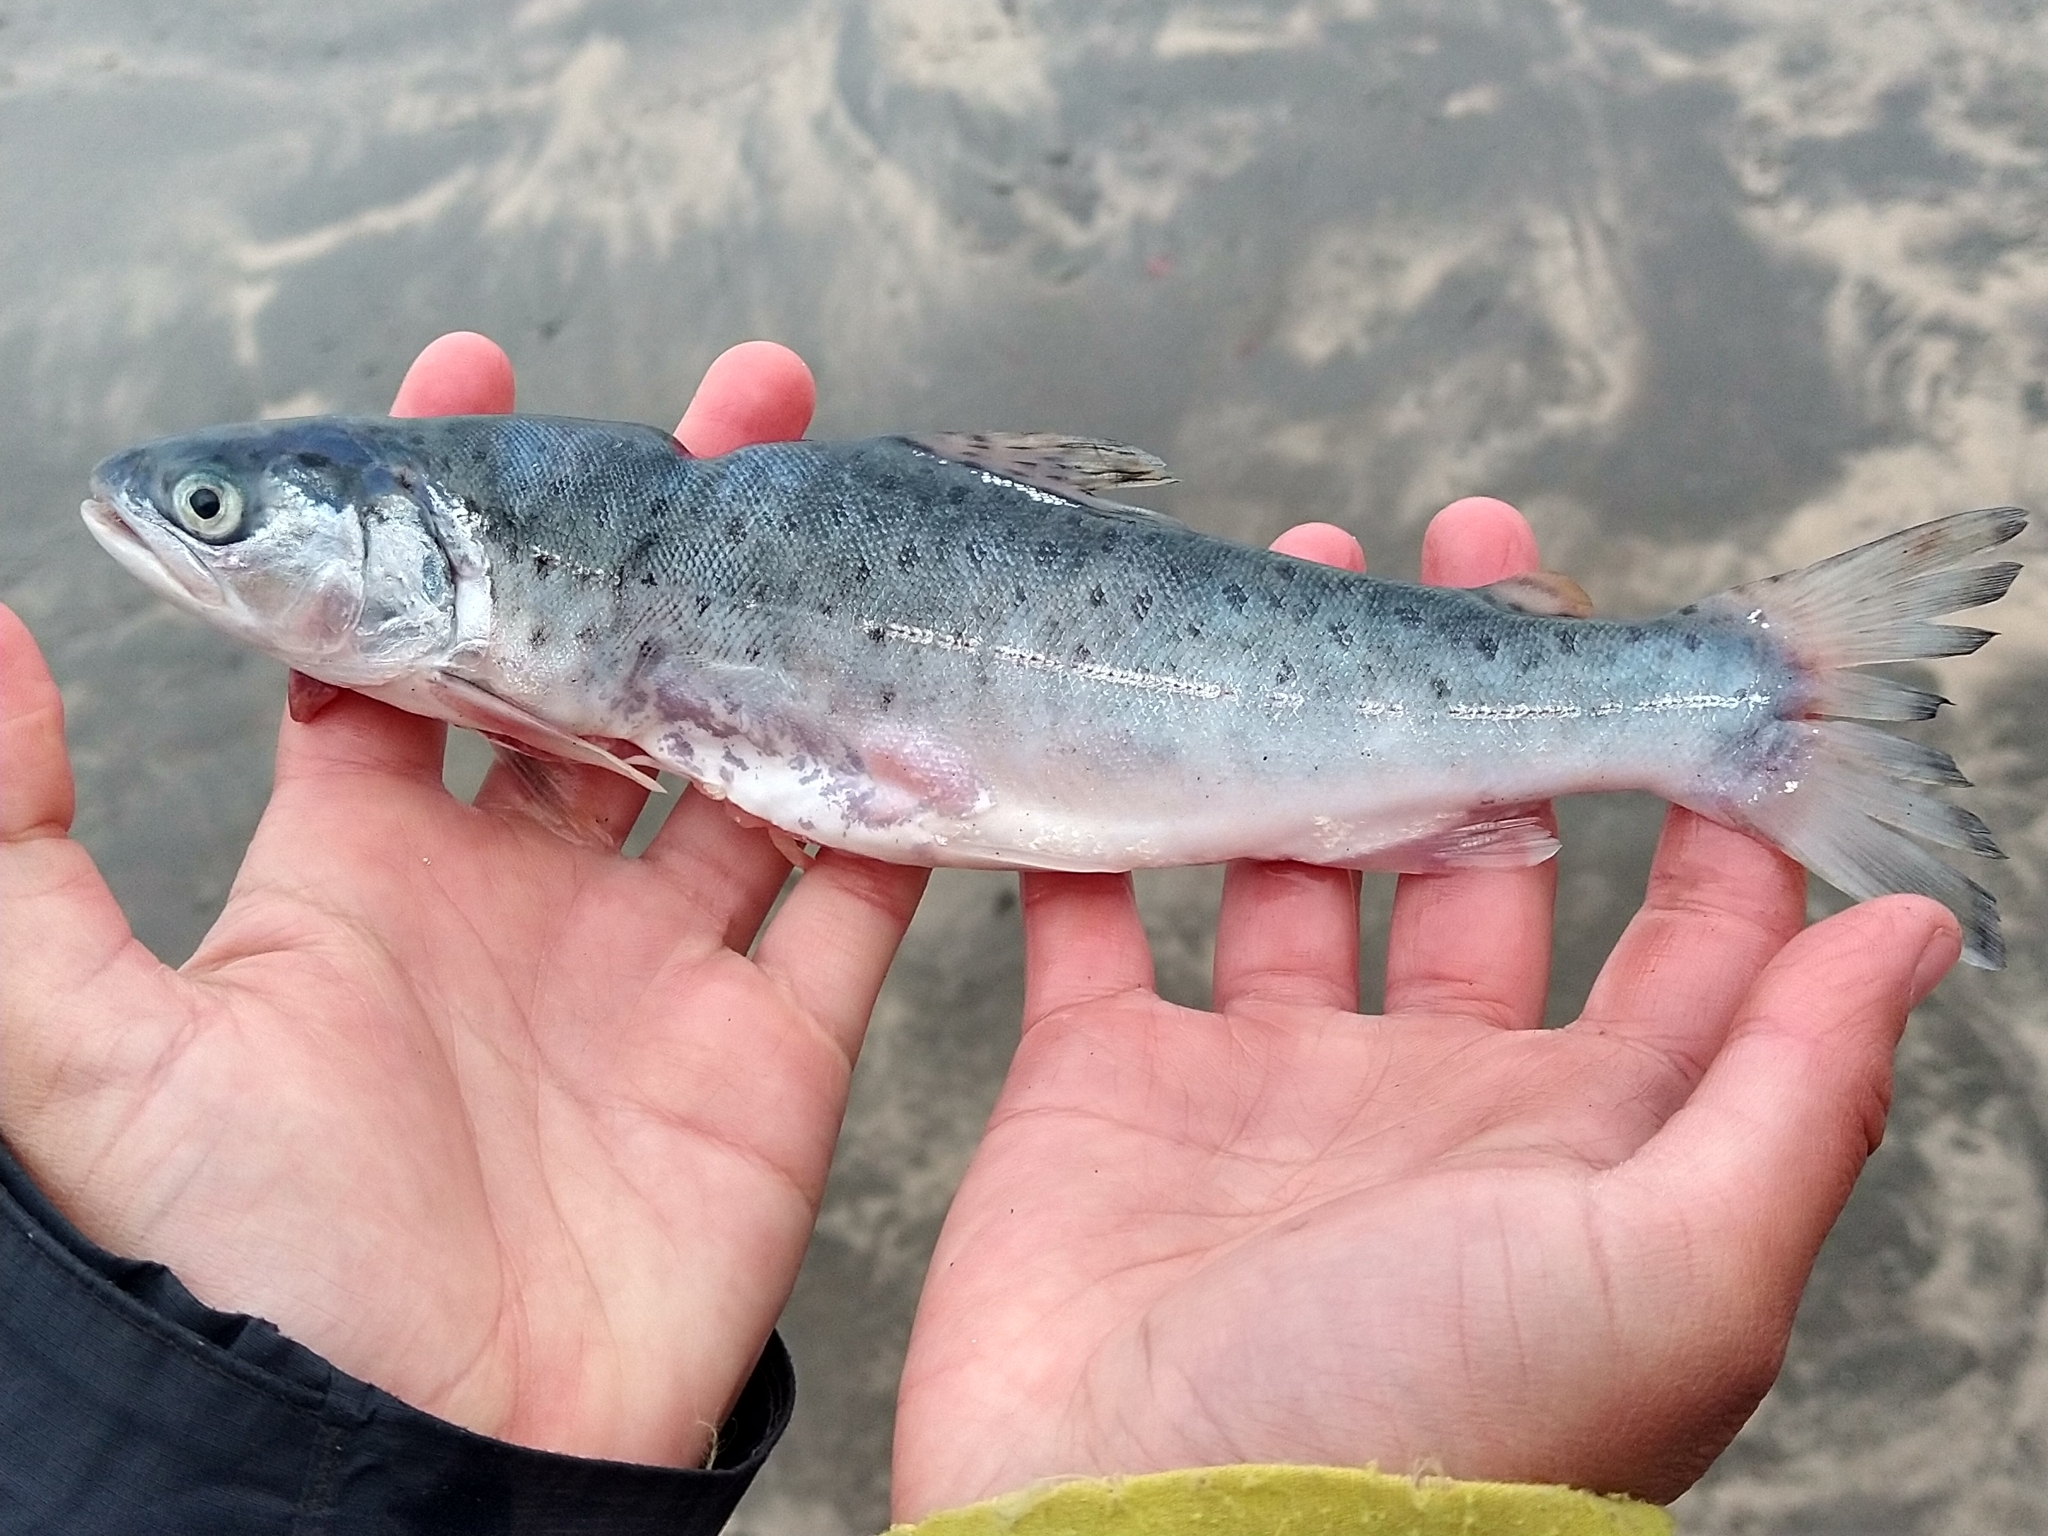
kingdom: Animalia
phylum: Chordata
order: Salmoniformes
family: Salmonidae
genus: Salmo
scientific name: Salmo trutta
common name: Brown trout
